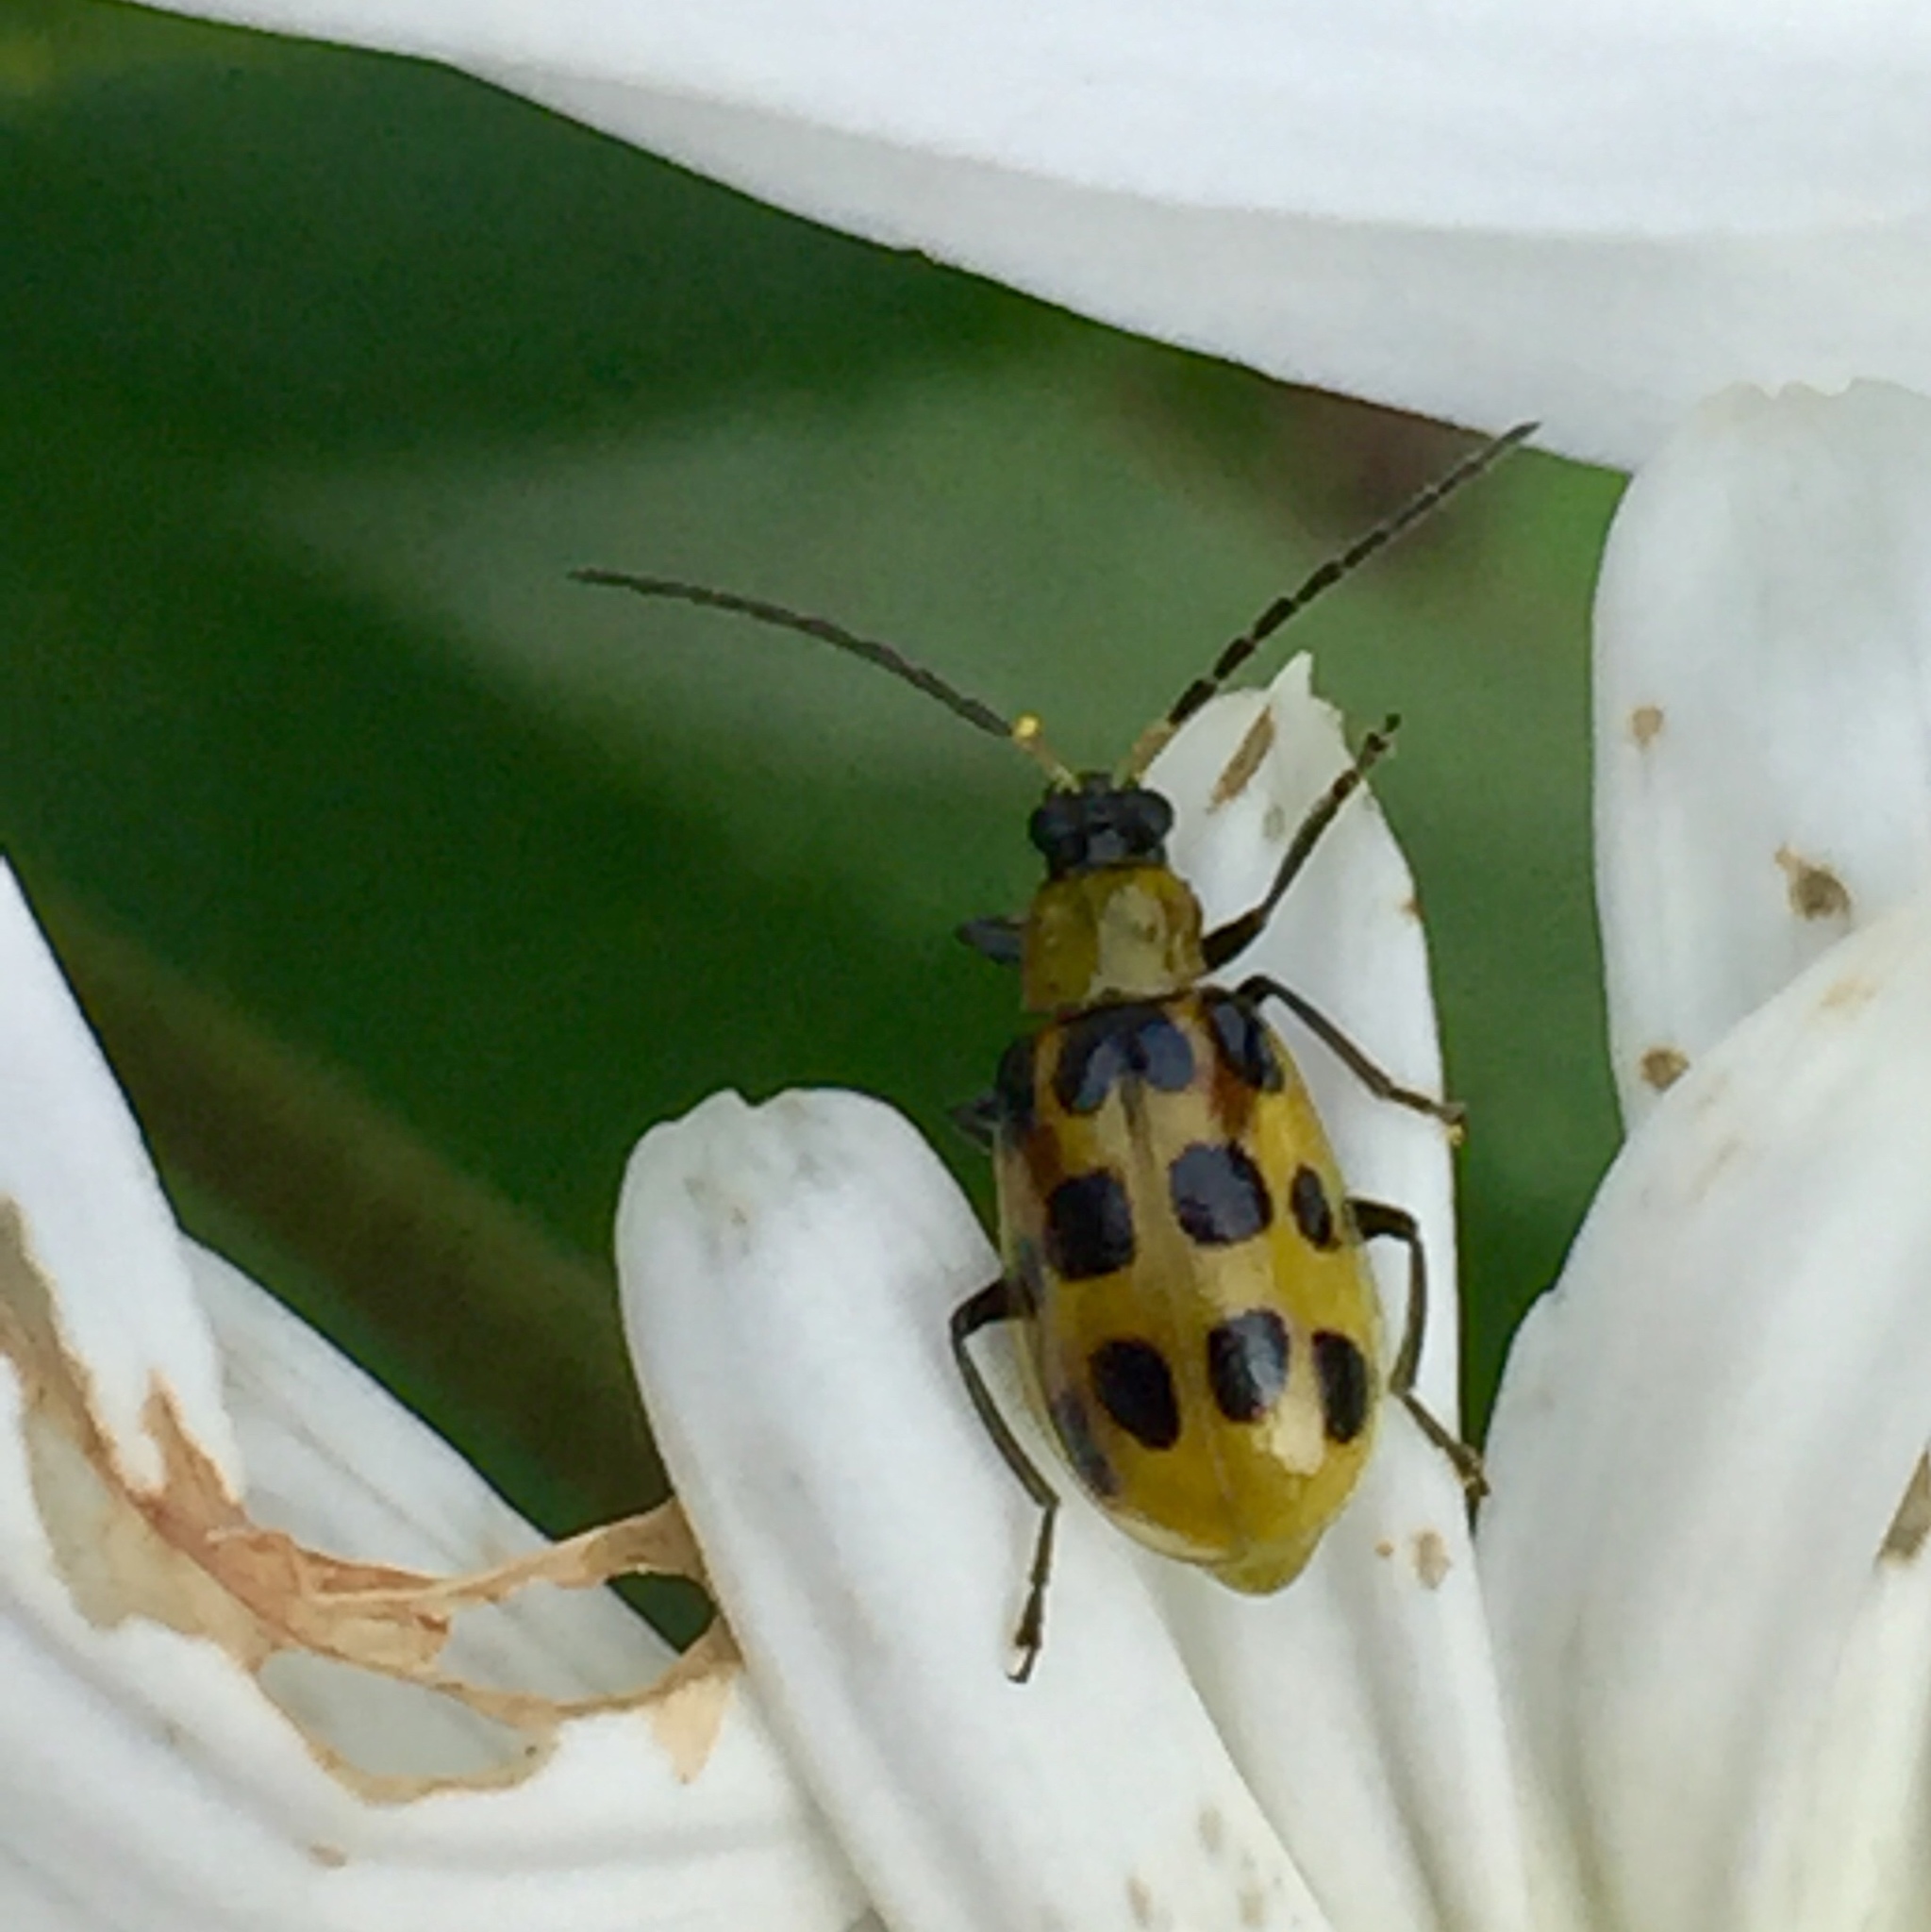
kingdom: Animalia
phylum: Arthropoda
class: Insecta
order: Coleoptera
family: Chrysomelidae
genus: Diabrotica
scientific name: Diabrotica undecimpunctata
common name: Spotted cucumber beetle
